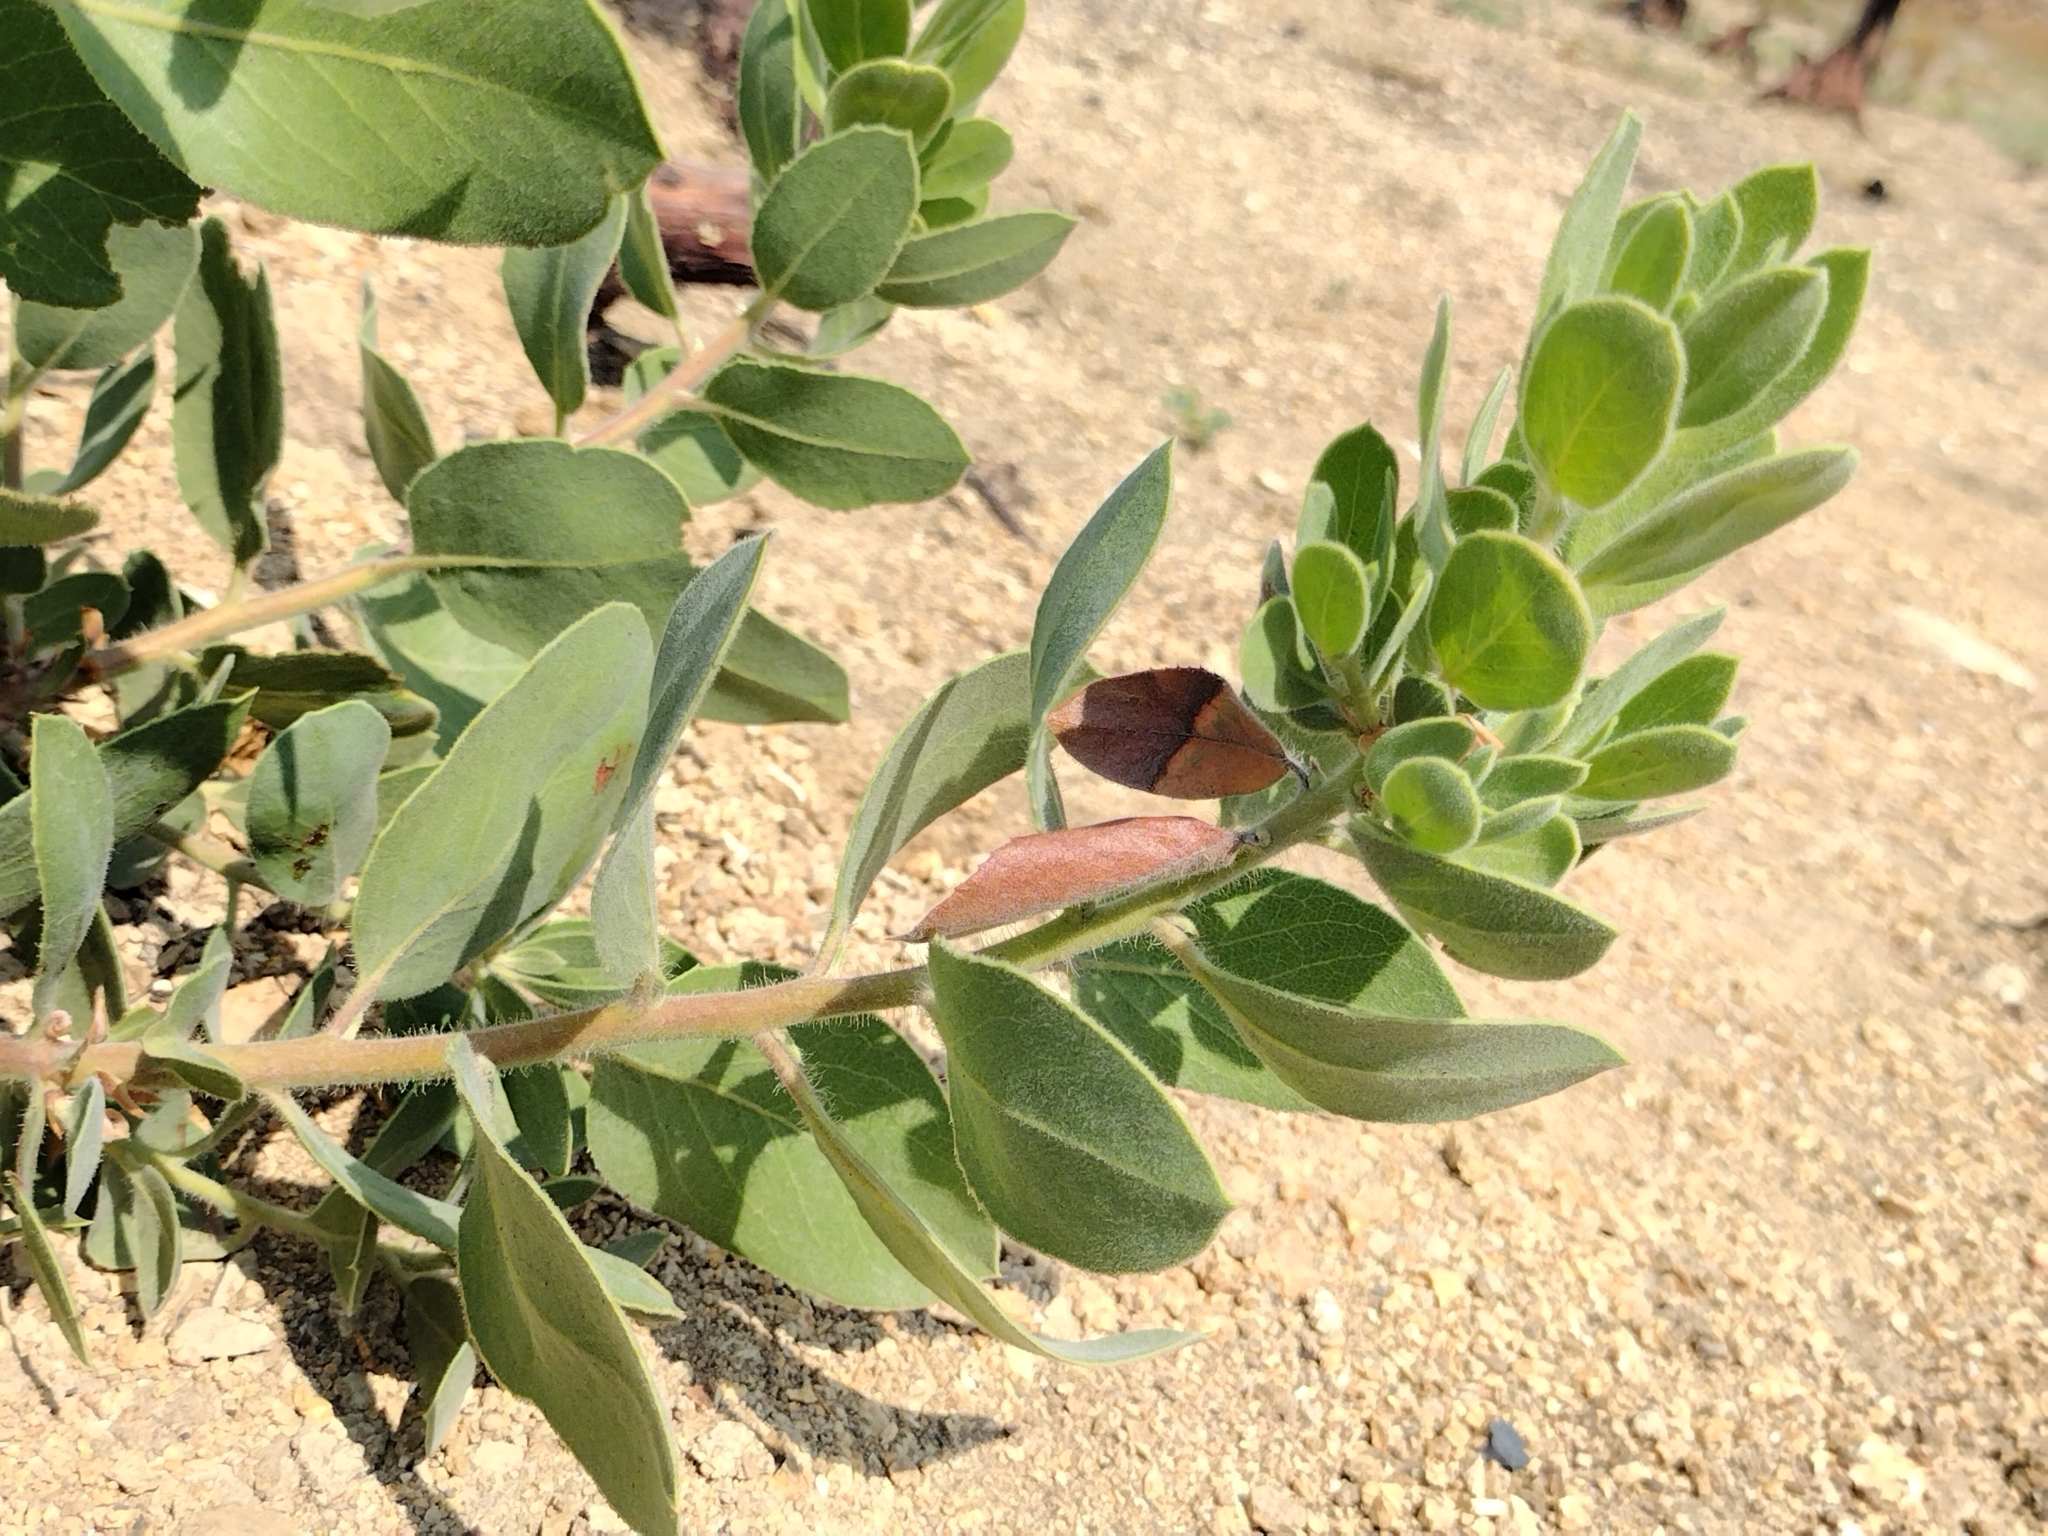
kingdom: Plantae
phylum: Tracheophyta
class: Magnoliopsida
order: Ericales
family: Ericaceae
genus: Arctostaphylos
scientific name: Arctostaphylos glandulosa
